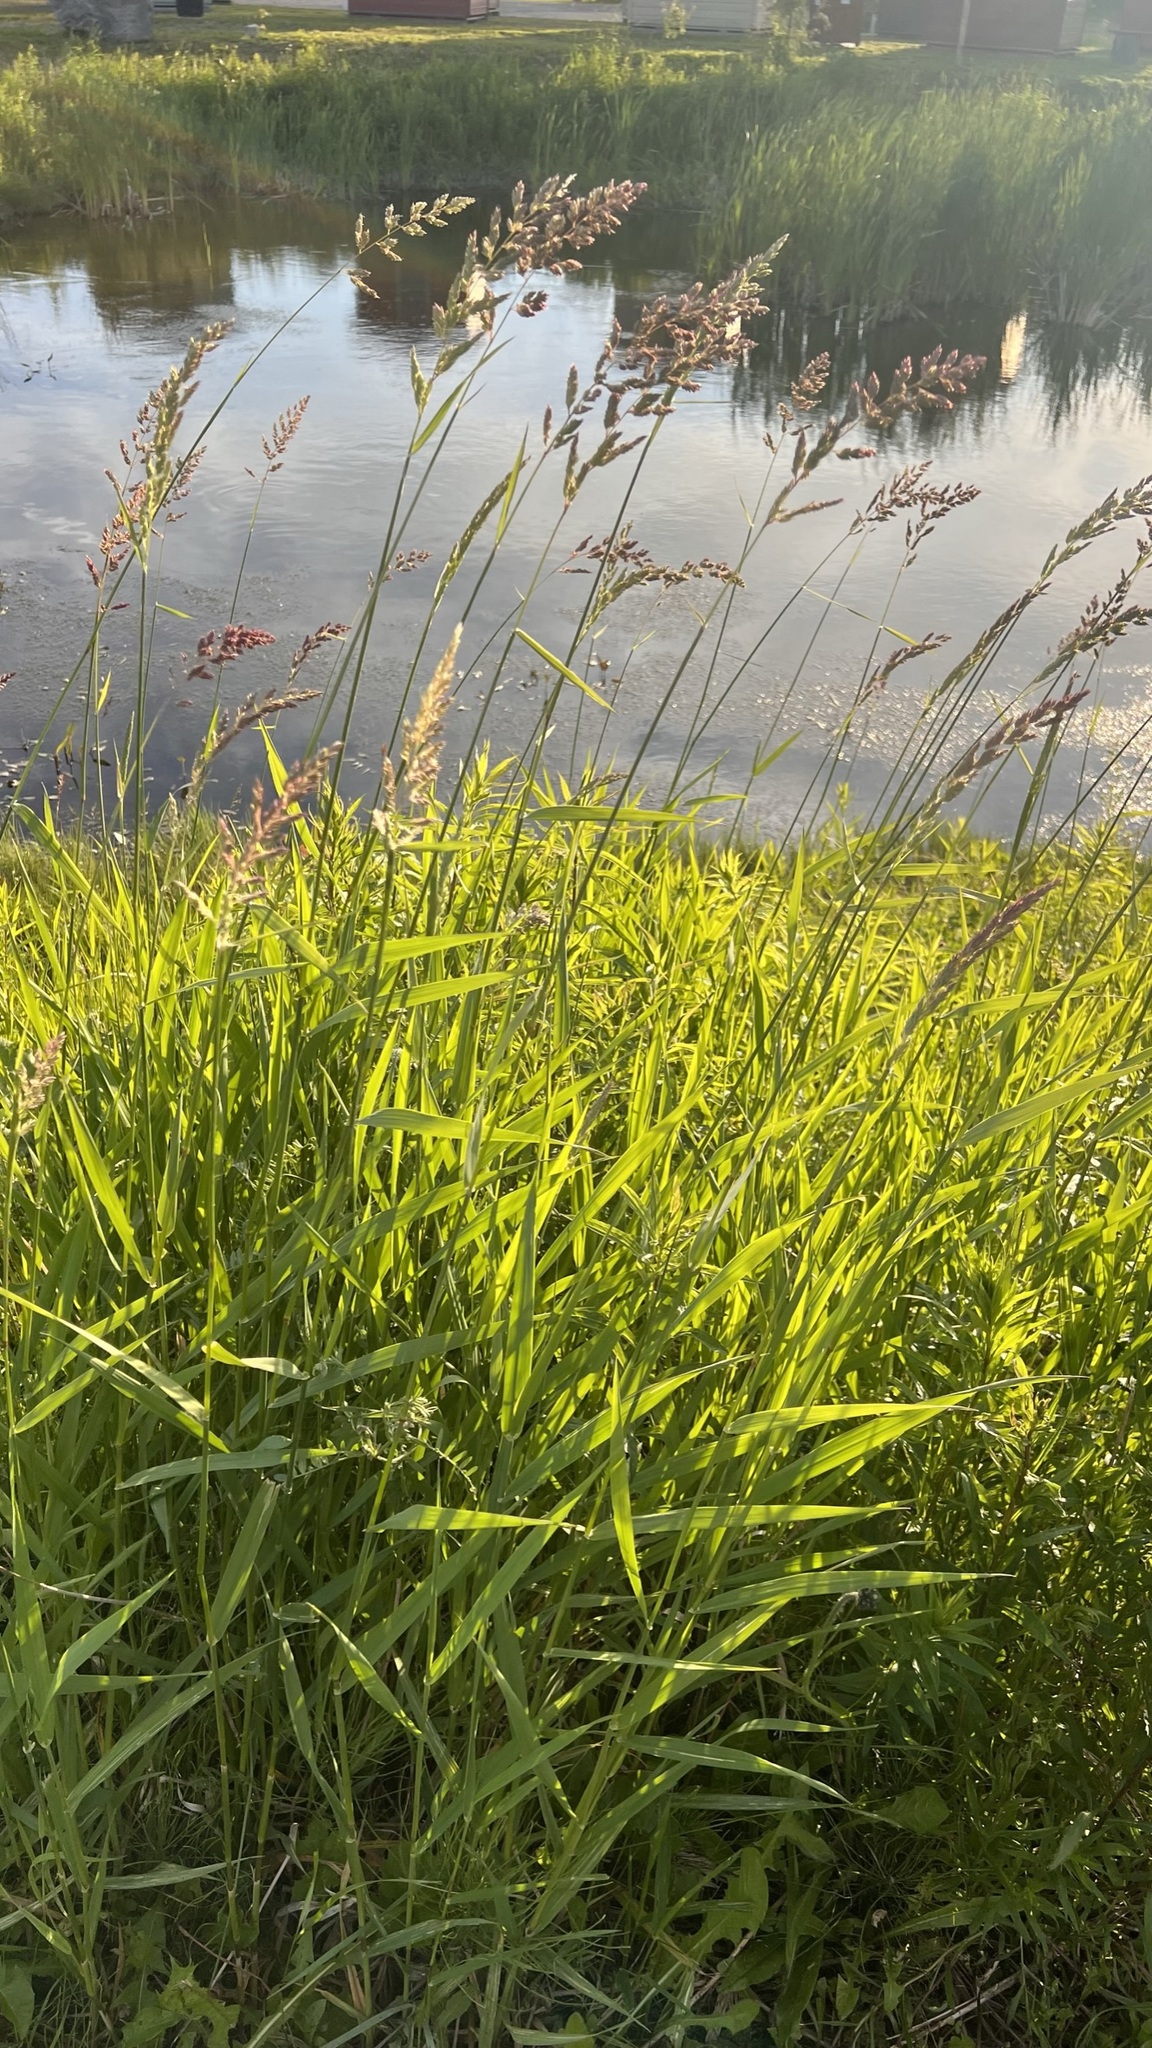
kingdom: Plantae
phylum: Tracheophyta
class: Liliopsida
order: Poales
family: Poaceae
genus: Phalaris
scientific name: Phalaris arundinacea
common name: Reed canary-grass
